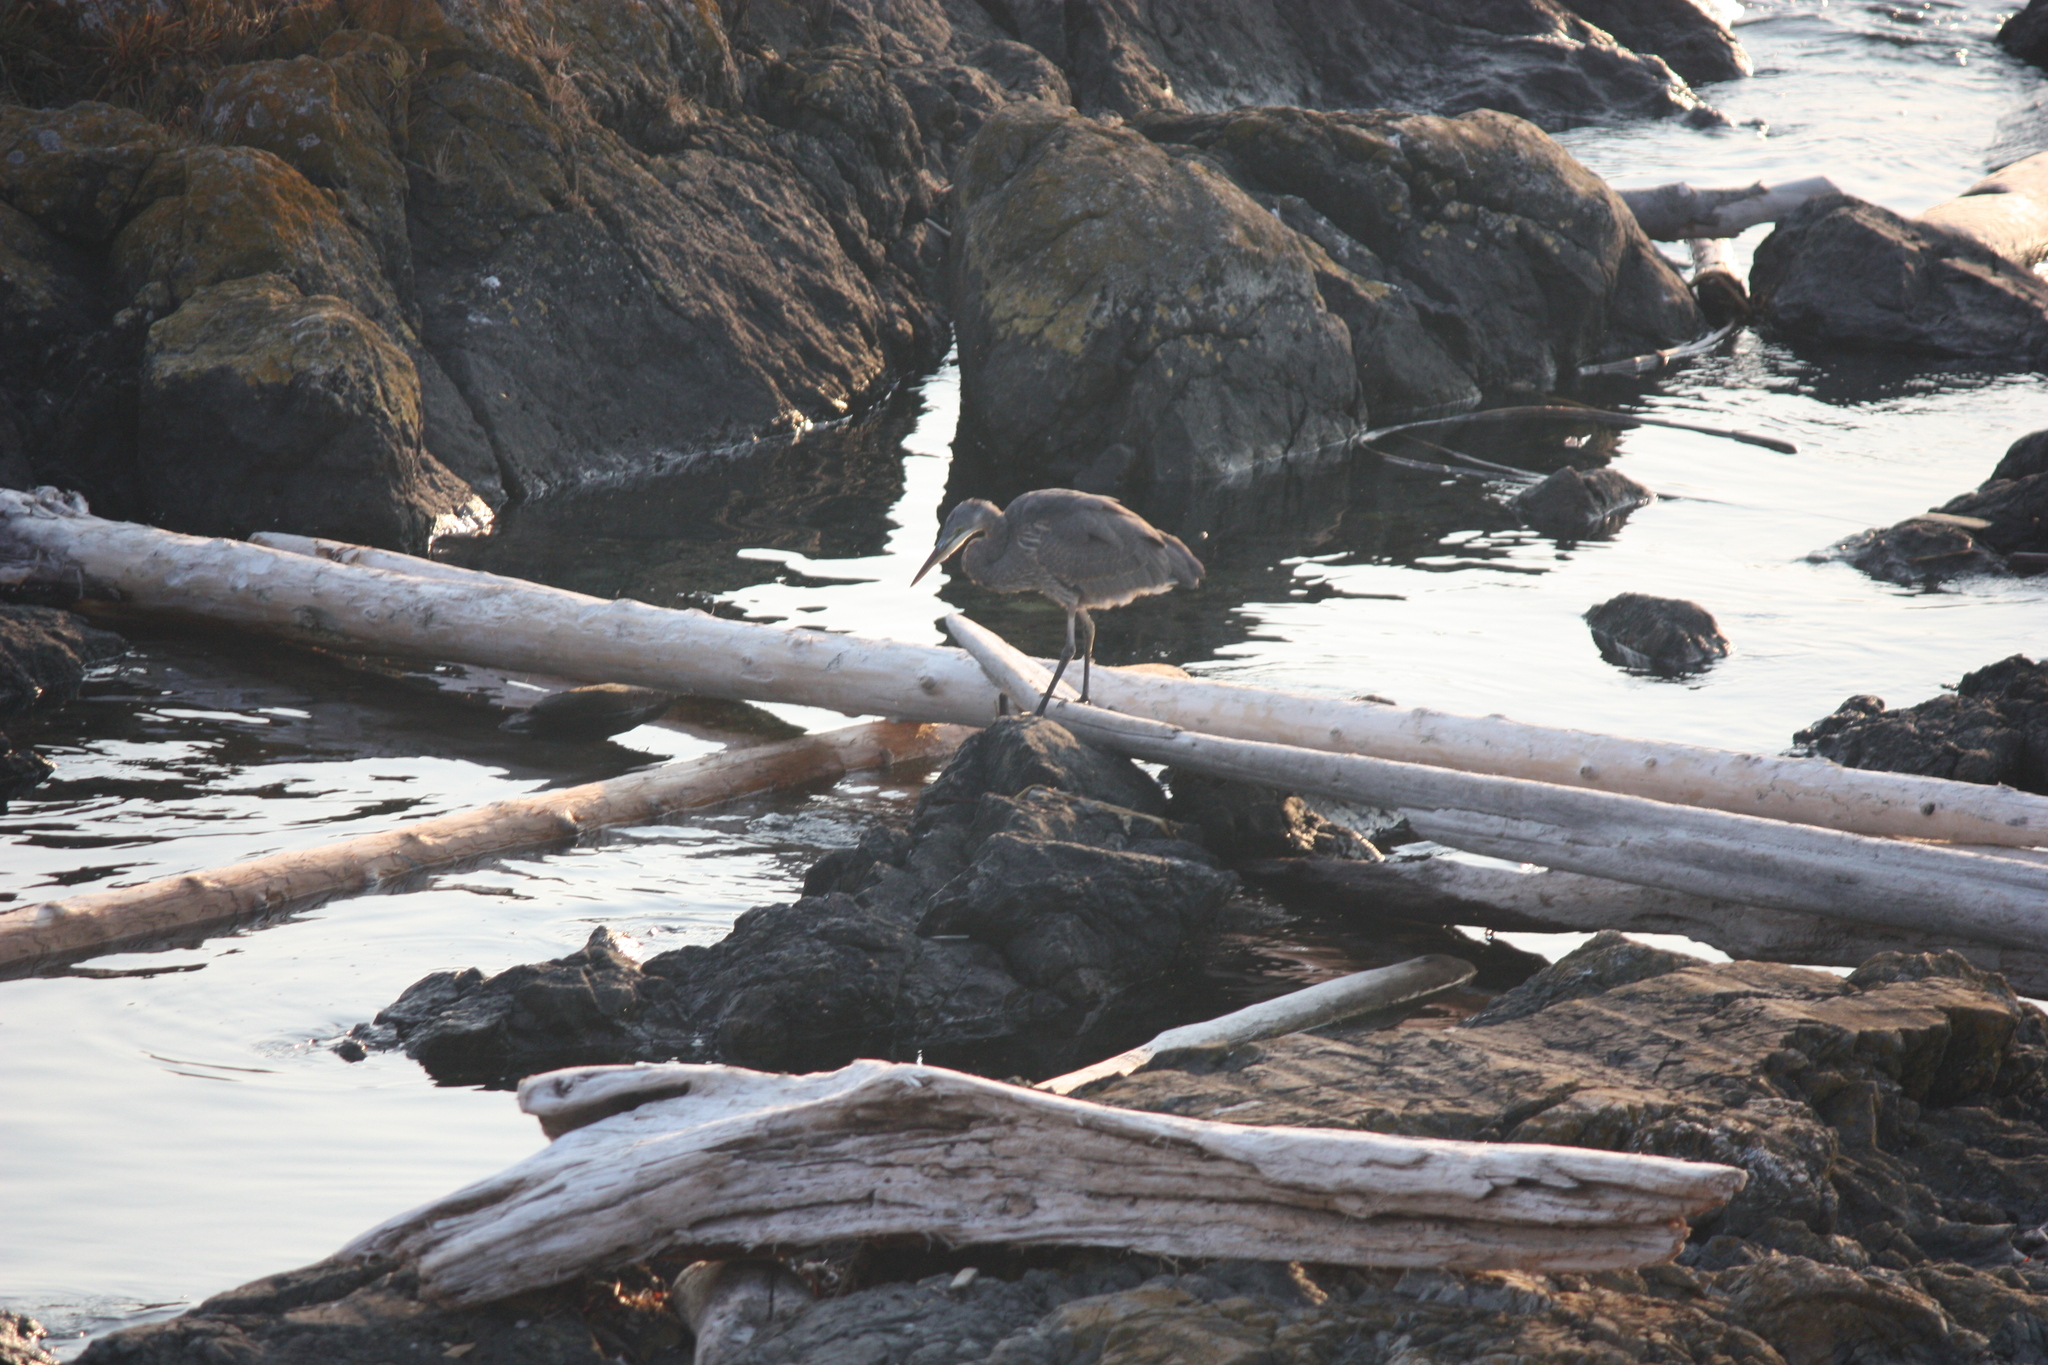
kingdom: Animalia
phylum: Chordata
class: Aves
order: Pelecaniformes
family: Ardeidae
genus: Ardea
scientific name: Ardea herodias
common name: Great blue heron
